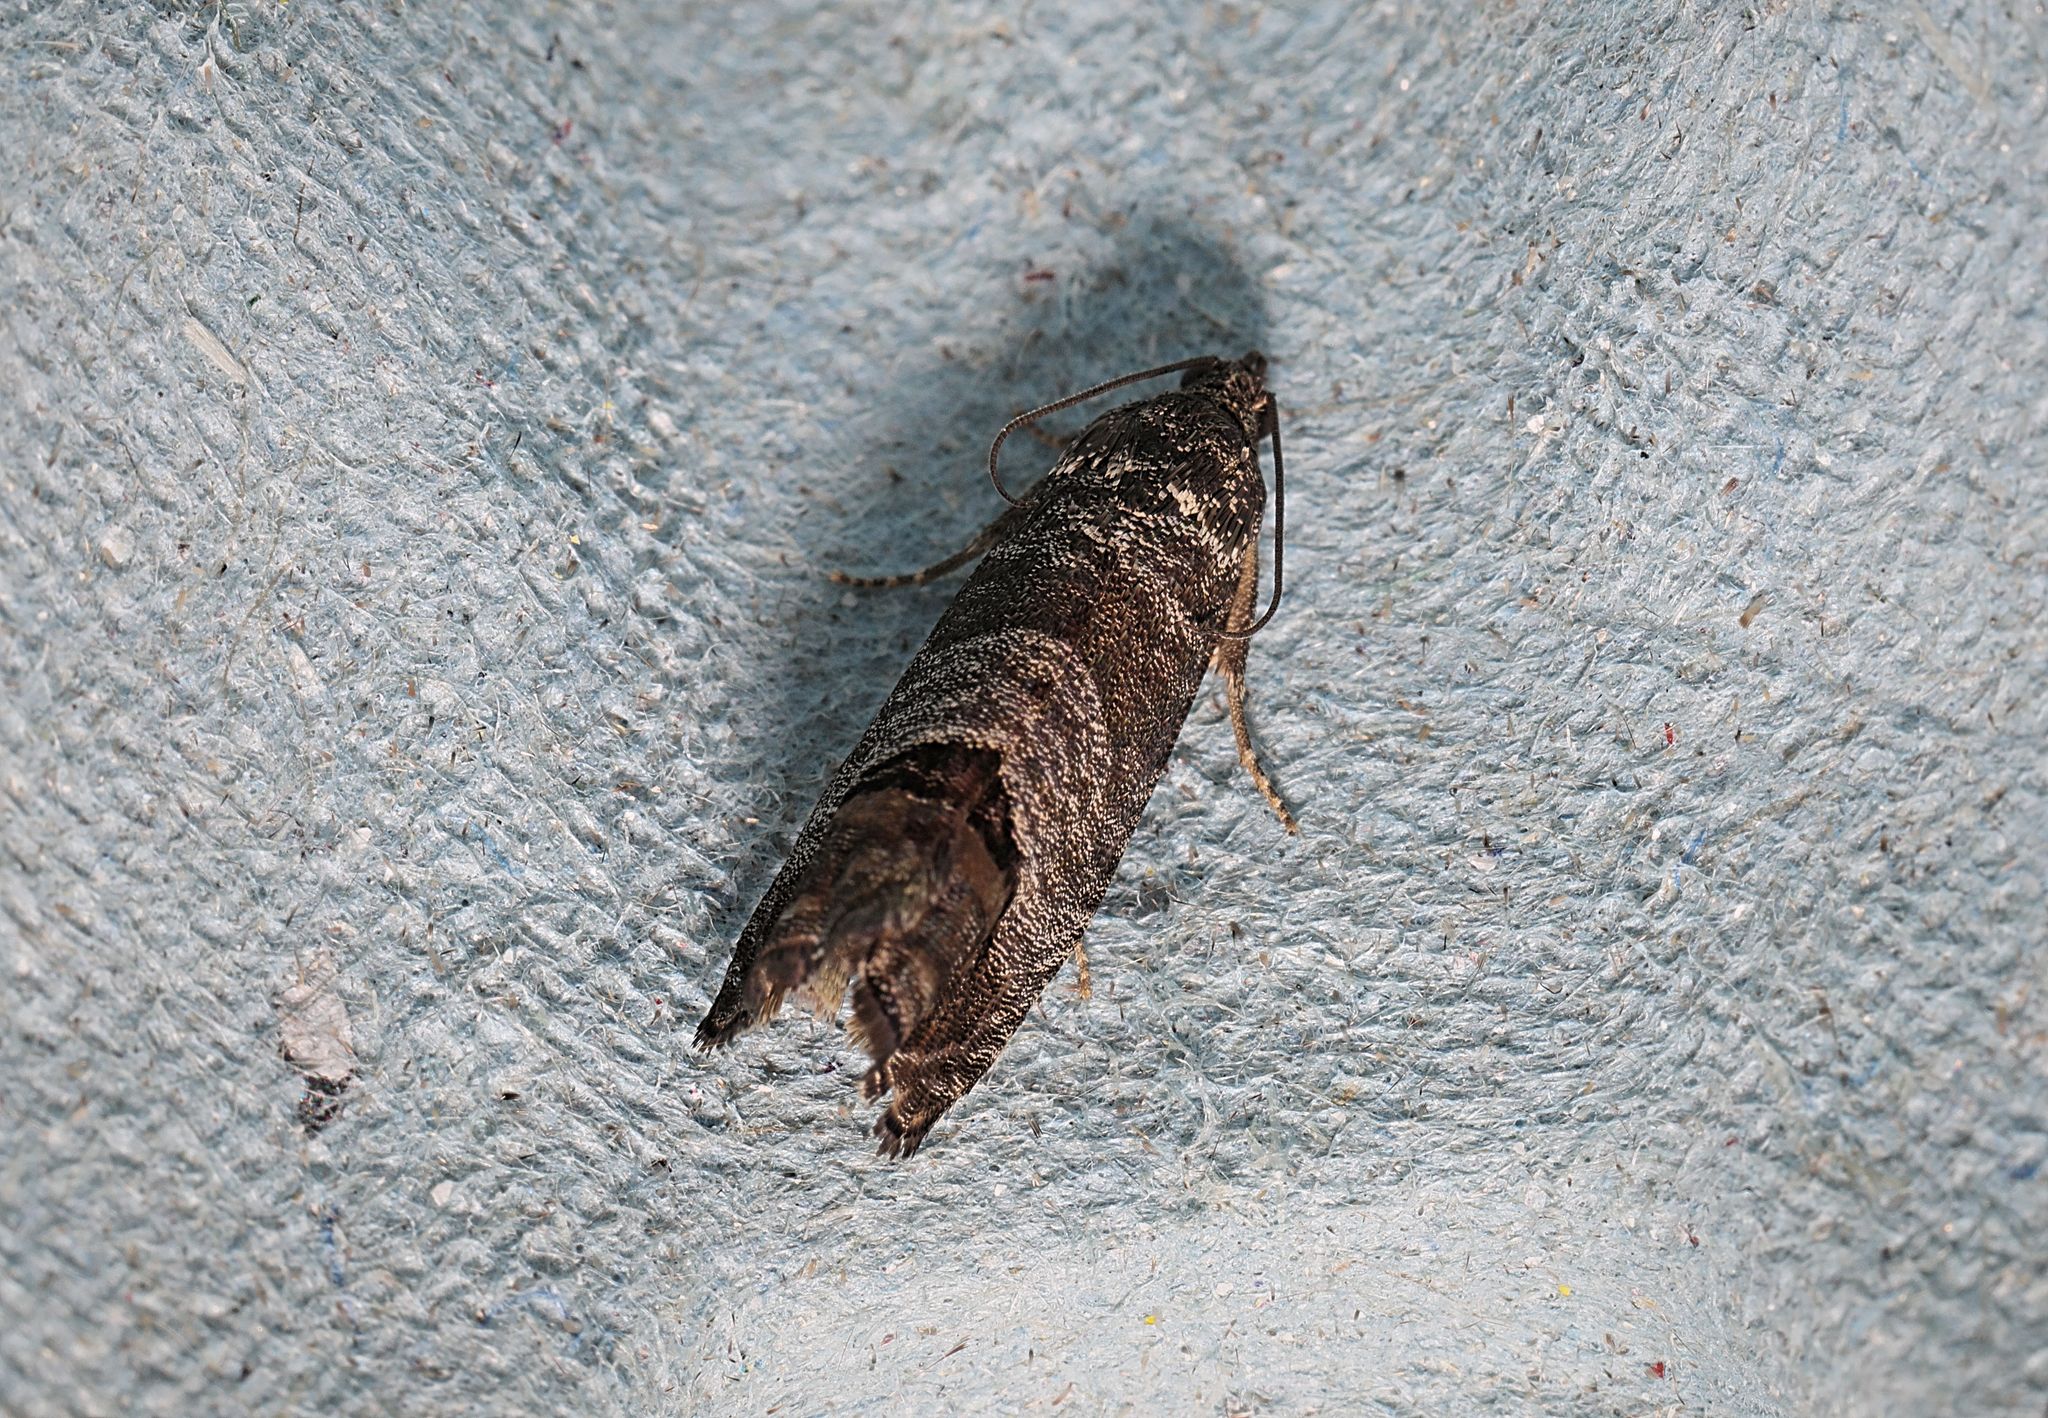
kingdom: Animalia
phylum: Arthropoda
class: Insecta
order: Lepidoptera
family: Tortricidae
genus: Cydia
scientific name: Cydia pomonella
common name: Codling moth
